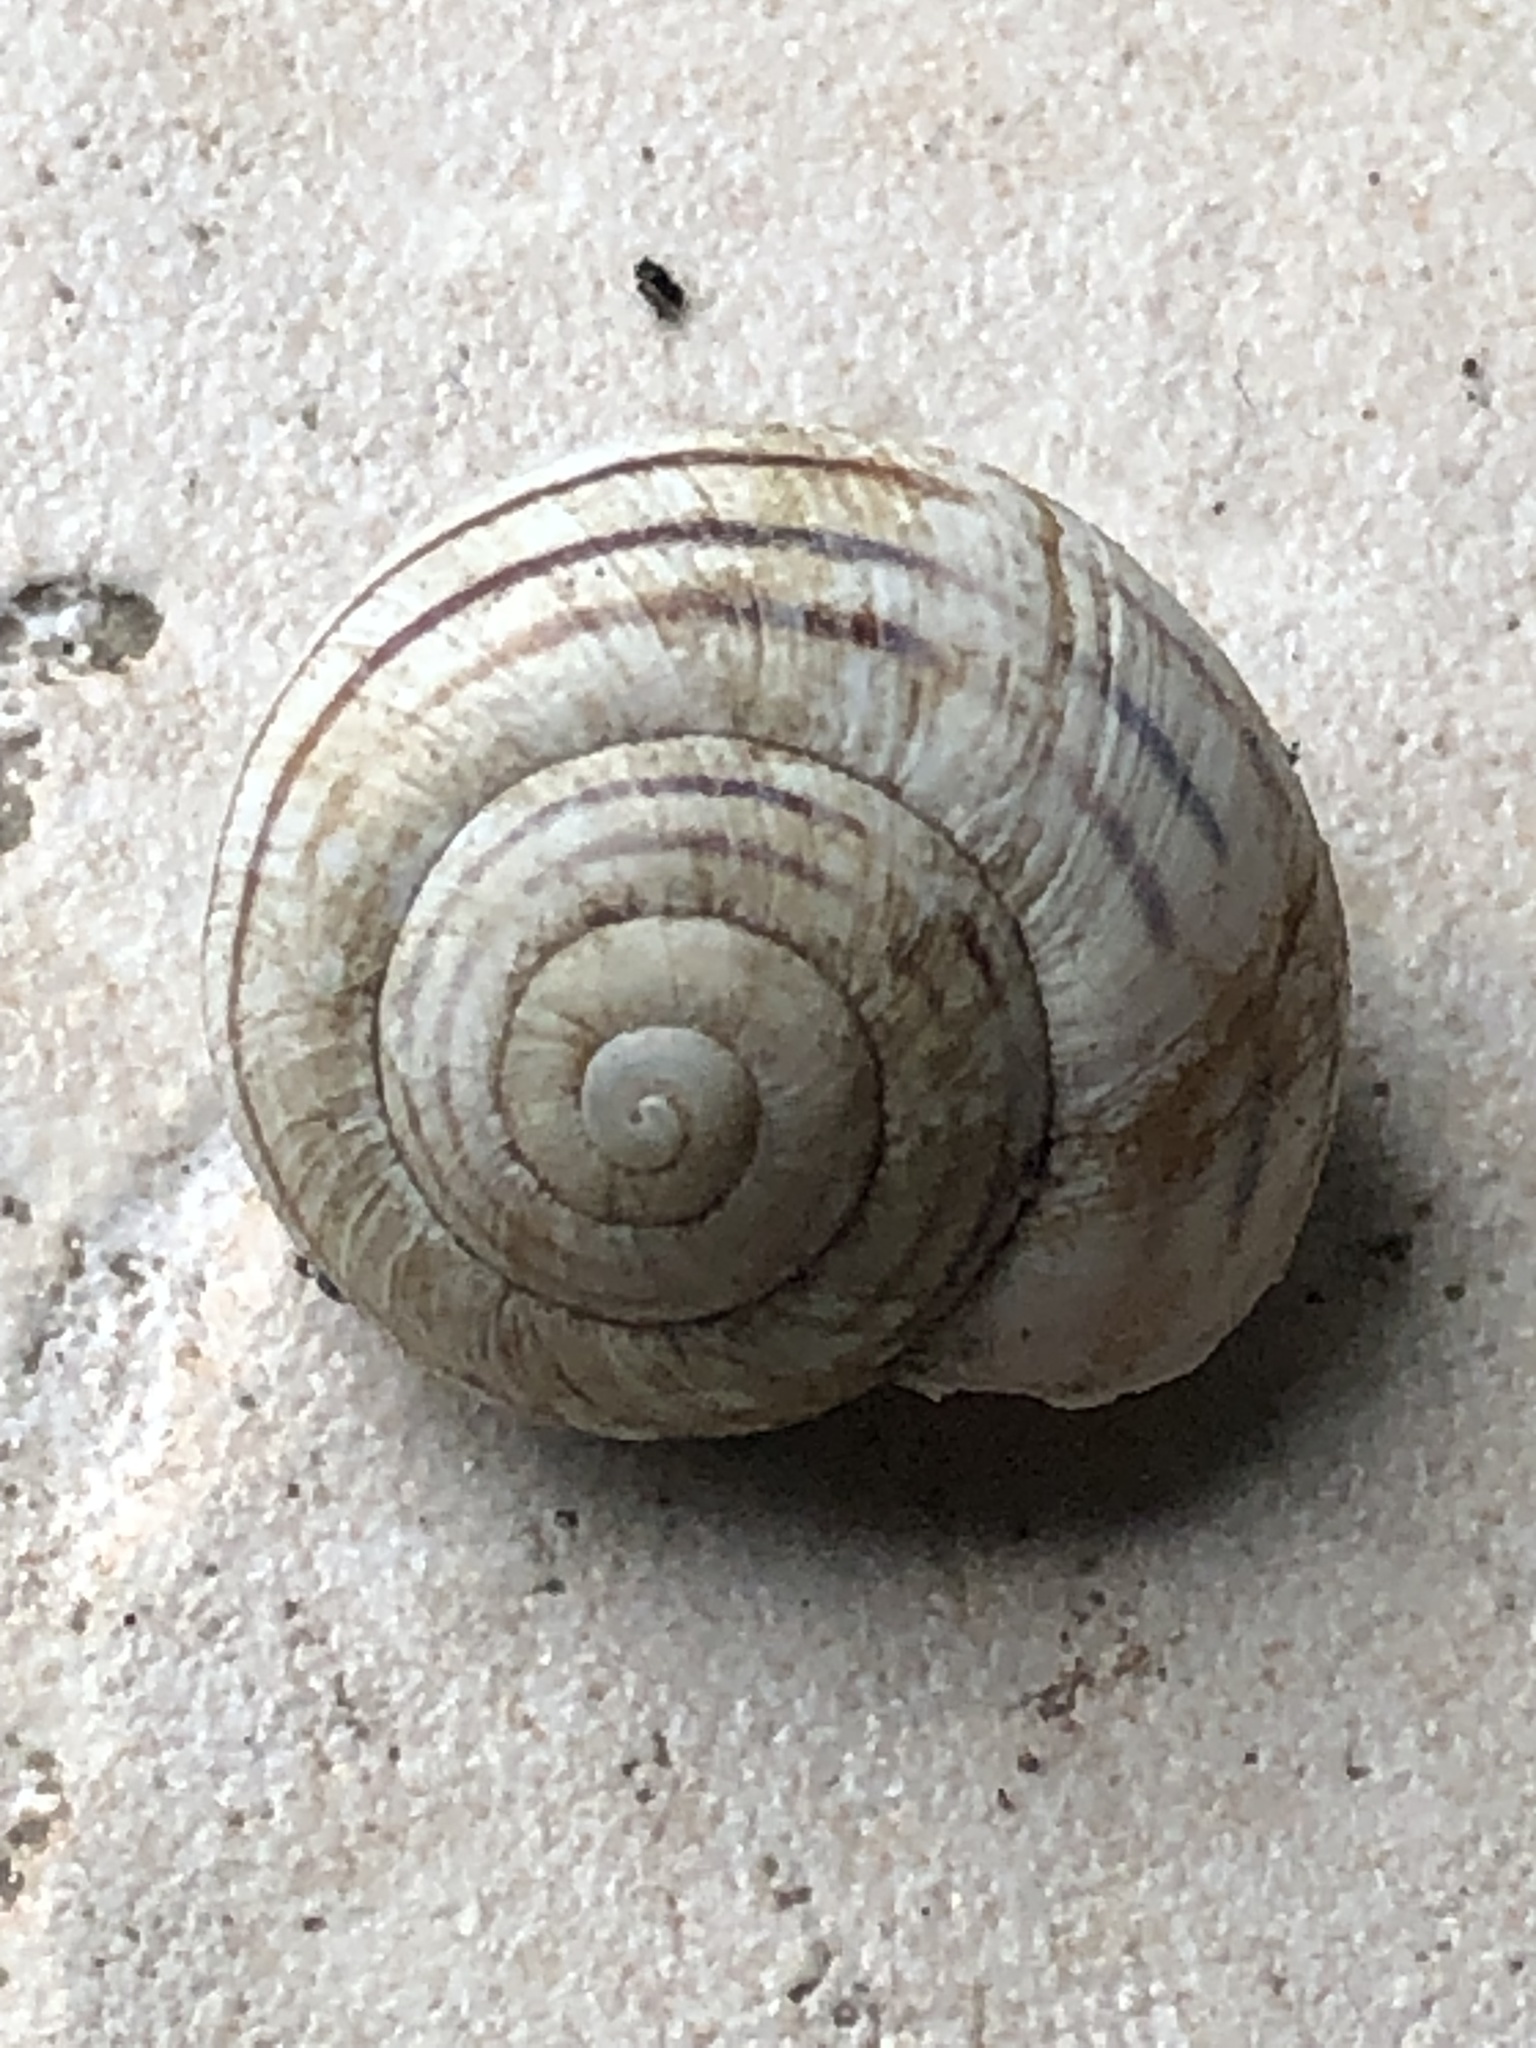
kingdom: Animalia
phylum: Mollusca
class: Gastropoda
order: Stylommatophora
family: Helicidae
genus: Cepaea
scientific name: Cepaea nemoralis
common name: Grovesnail
